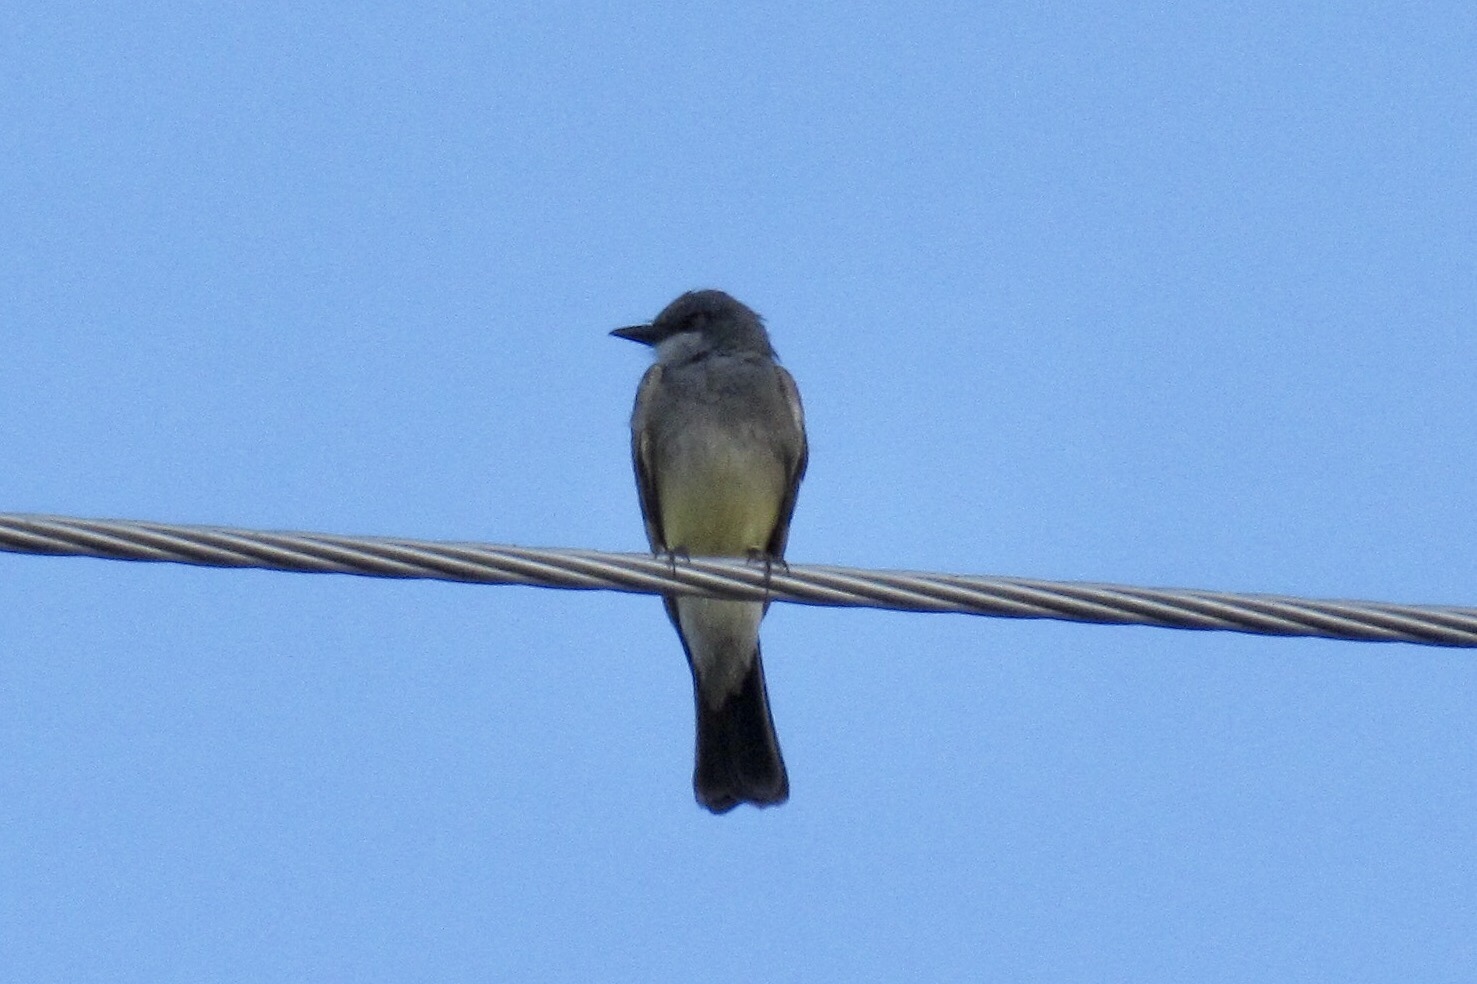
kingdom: Animalia
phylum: Chordata
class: Aves
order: Passeriformes
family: Tyrannidae
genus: Tyrannus
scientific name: Tyrannus vociferans
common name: Cassin's kingbird
